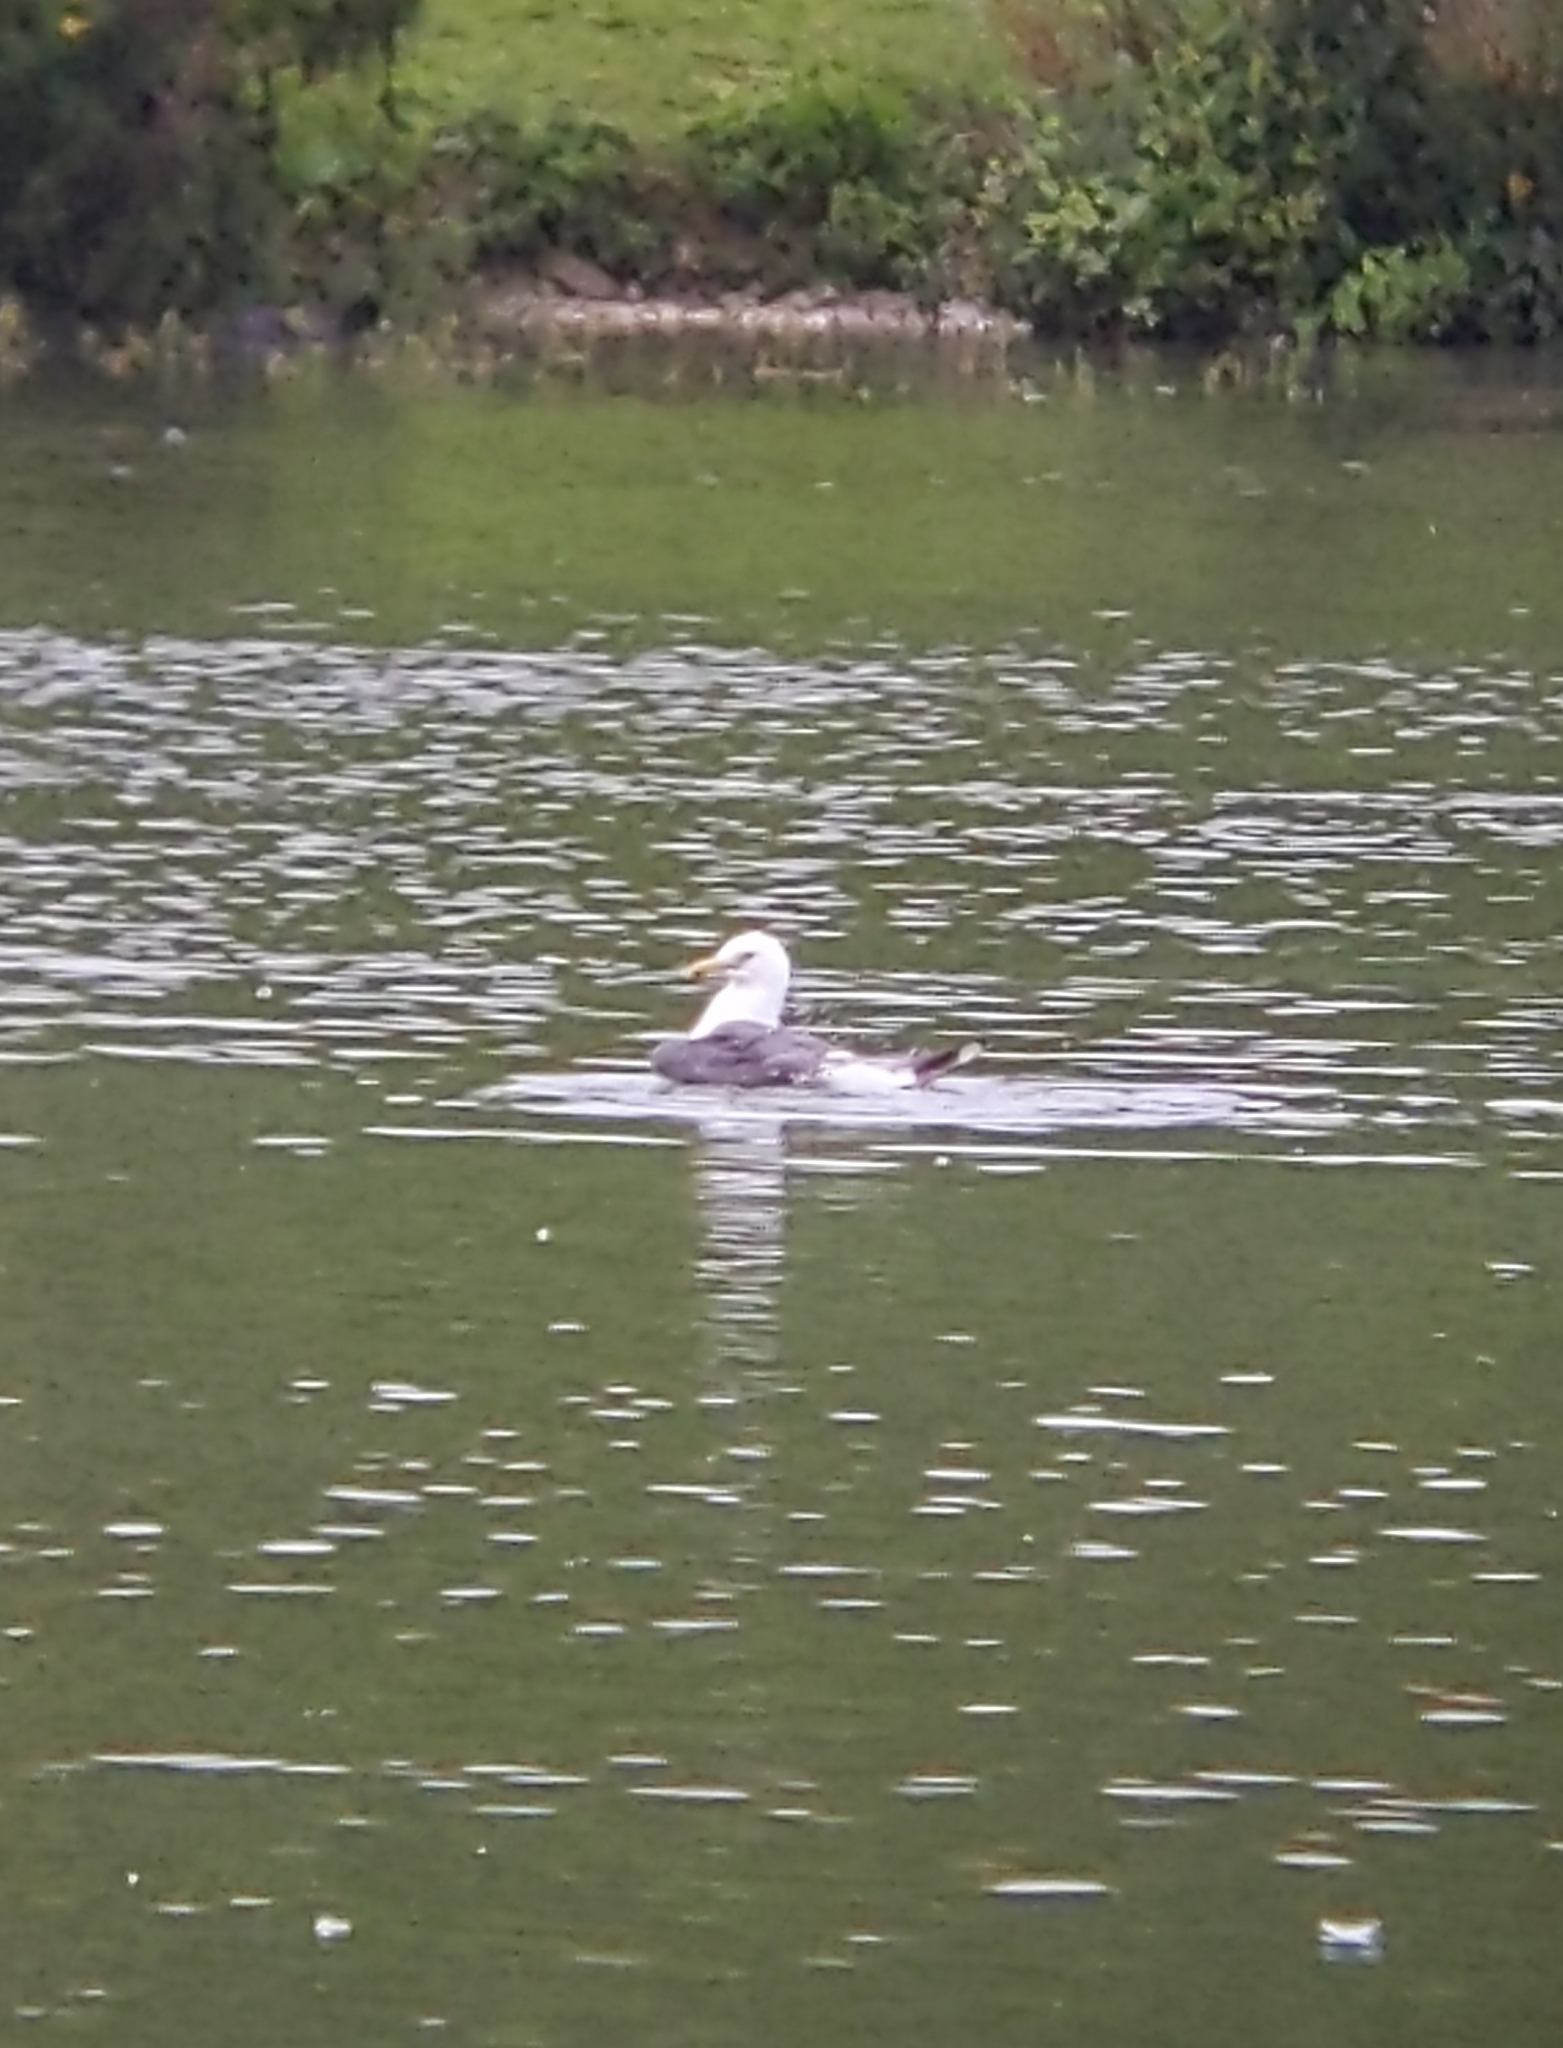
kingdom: Animalia
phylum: Chordata
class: Aves
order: Charadriiformes
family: Laridae
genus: Larus
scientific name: Larus fuscus
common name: Lesser black-backed gull
